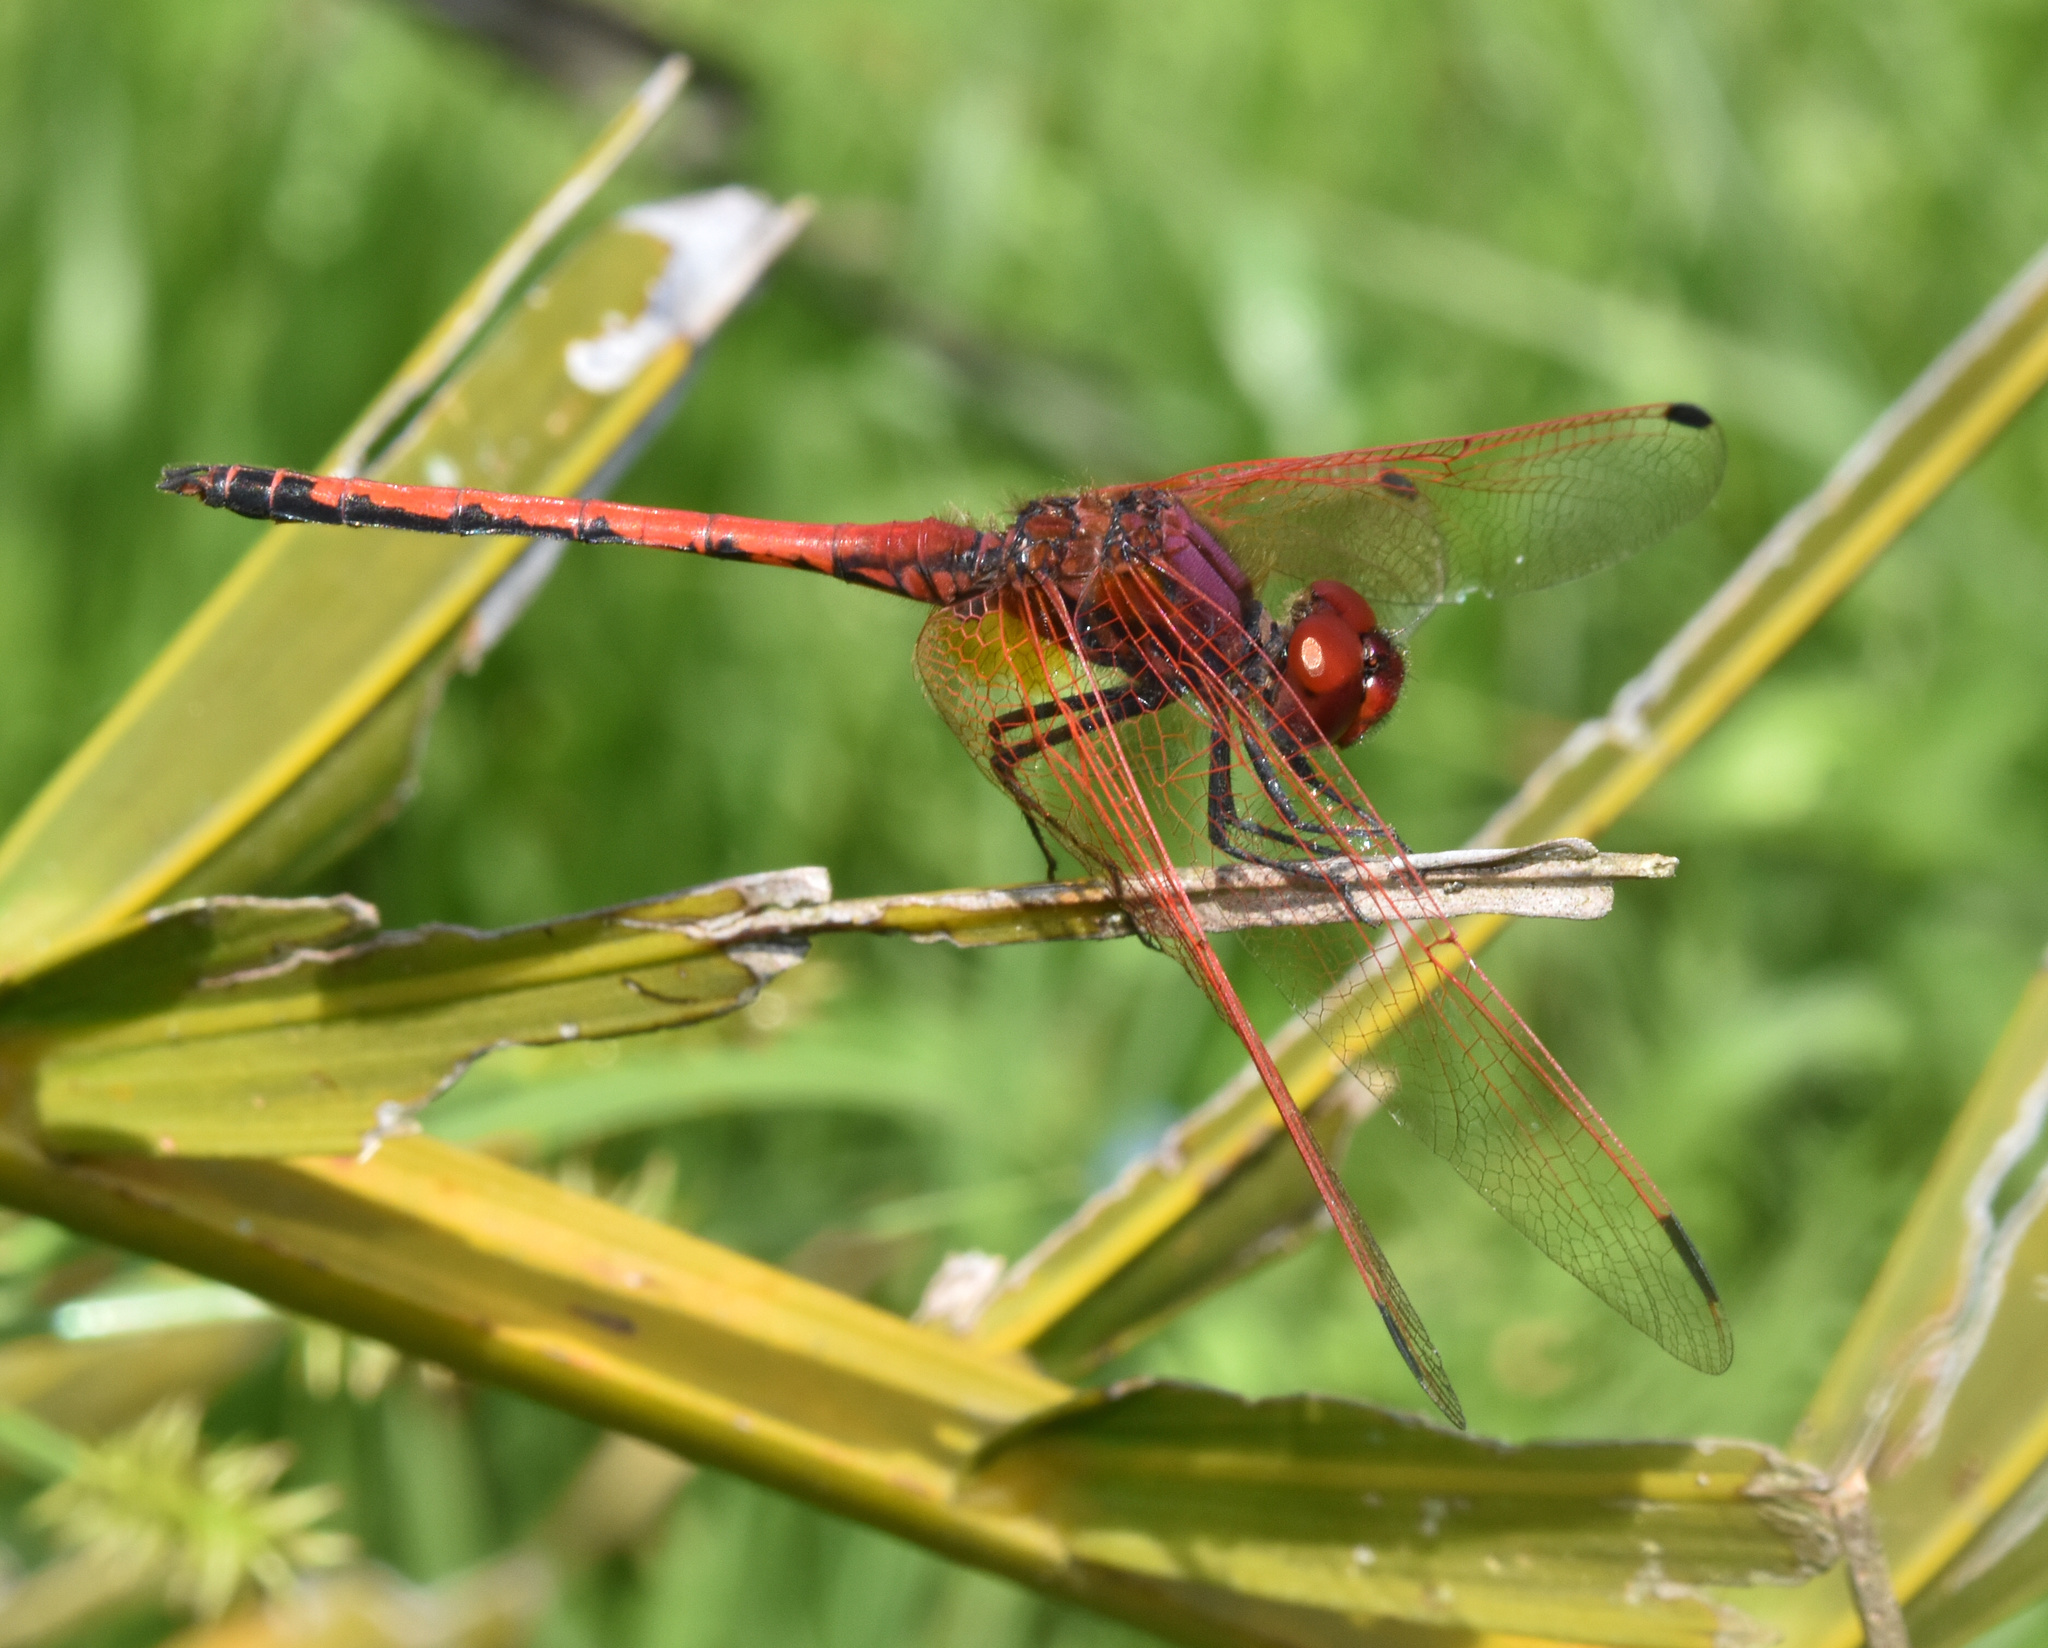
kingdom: Animalia
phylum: Arthropoda
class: Insecta
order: Odonata
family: Libellulidae
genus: Trithemis
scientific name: Trithemis arteriosa
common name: Red-veined dropwing
